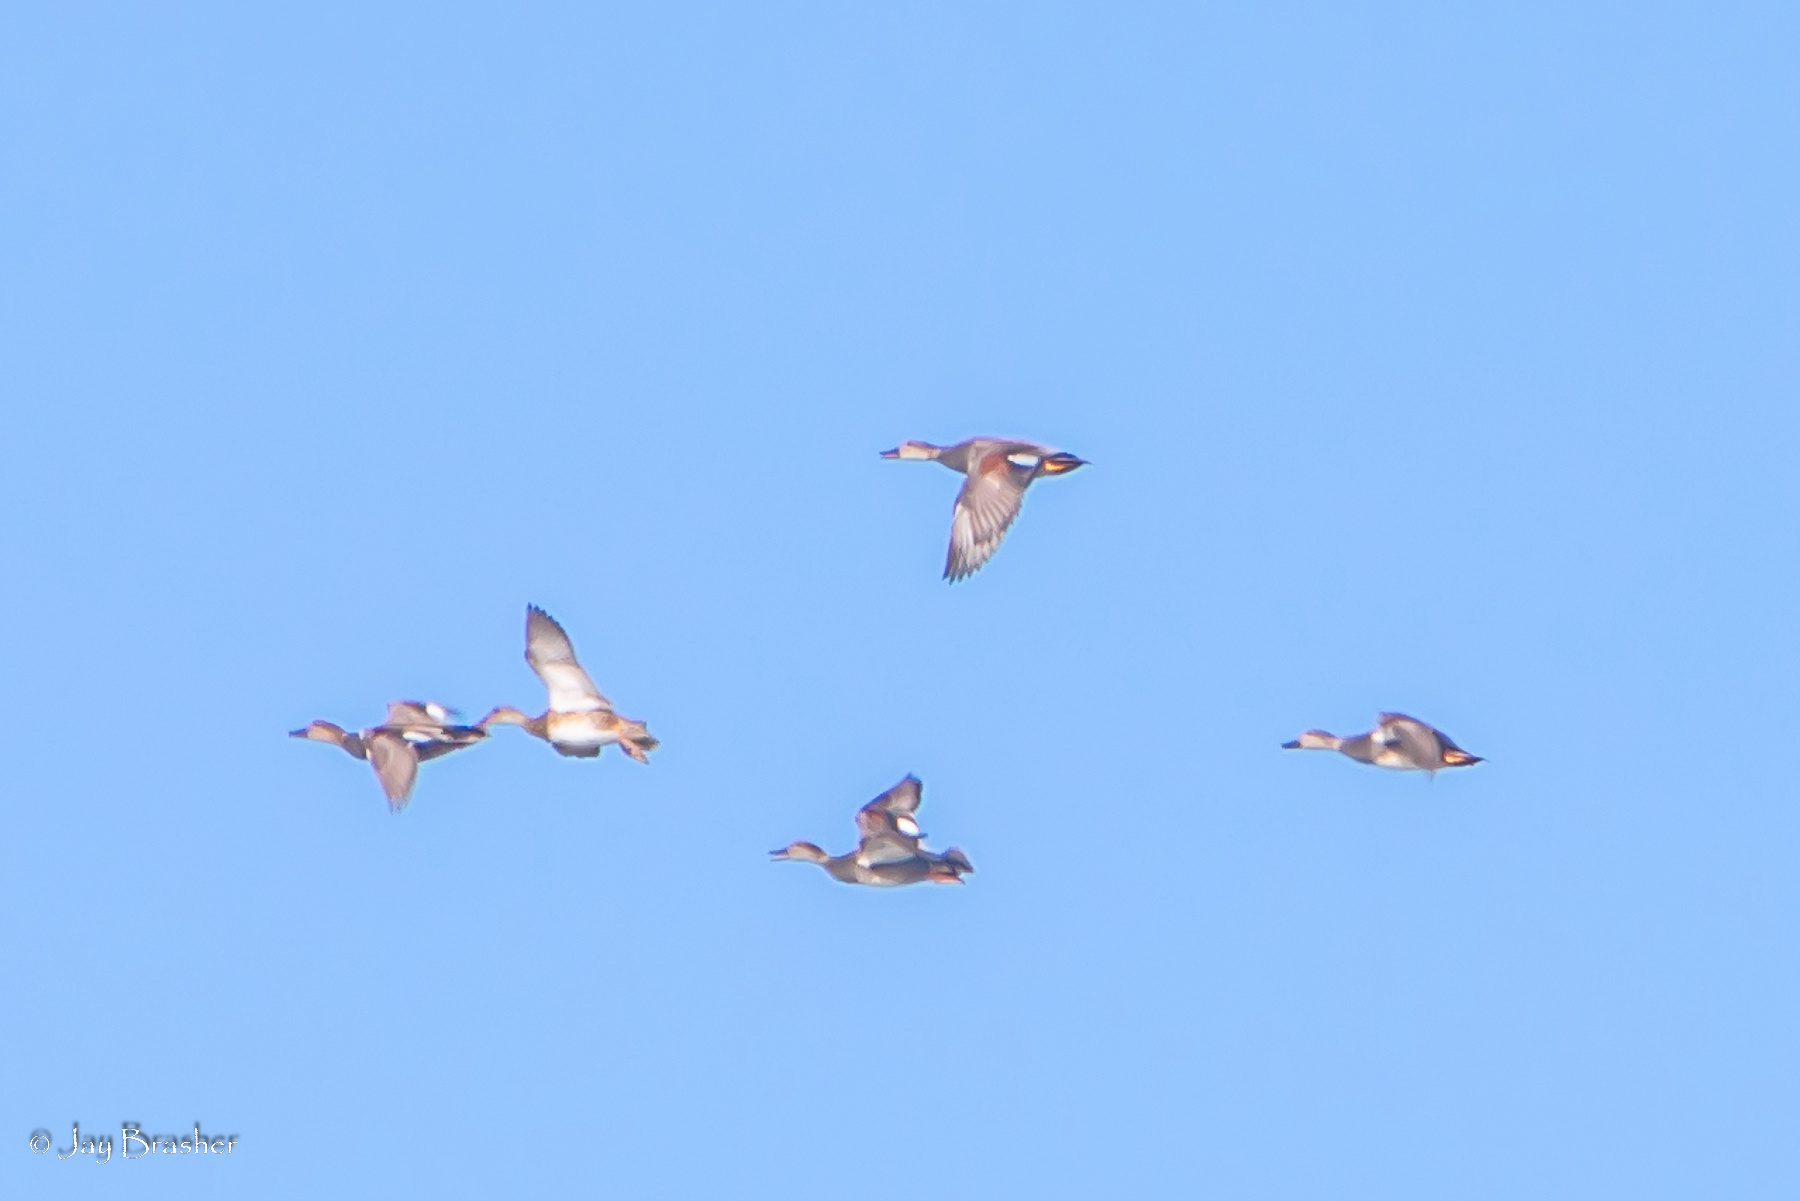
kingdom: Animalia
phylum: Chordata
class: Aves
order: Anseriformes
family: Anatidae
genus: Mareca
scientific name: Mareca strepera
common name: Gadwall
